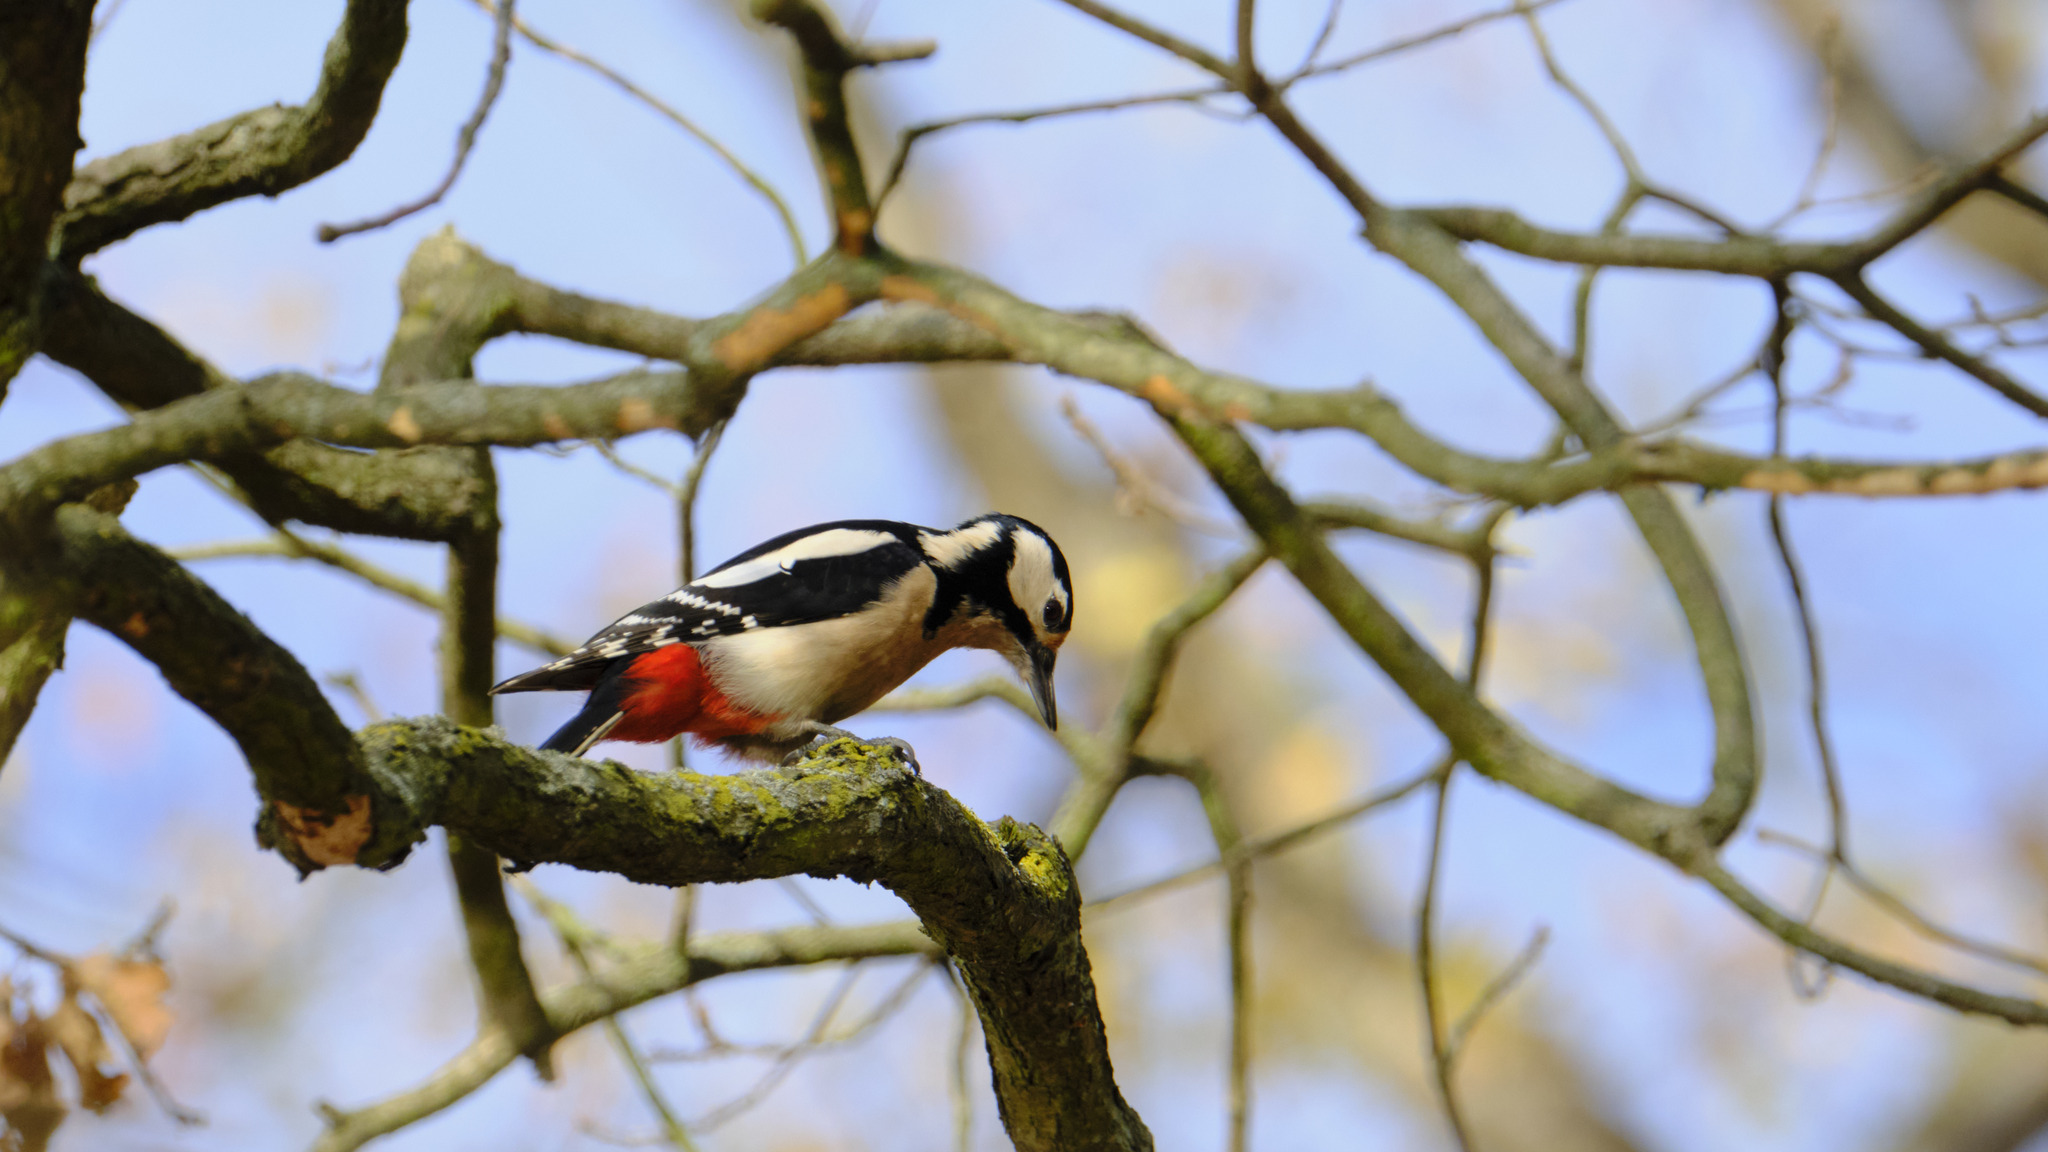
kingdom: Animalia
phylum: Chordata
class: Aves
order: Piciformes
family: Picidae
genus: Dendrocopos
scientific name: Dendrocopos major
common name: Great spotted woodpecker
